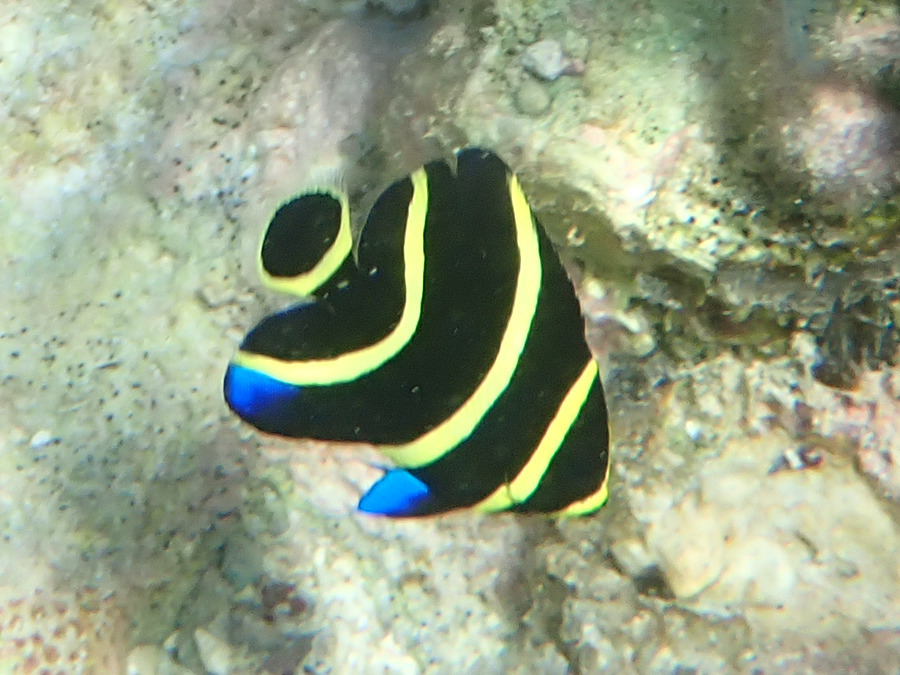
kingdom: Animalia
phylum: Chordata
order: Perciformes
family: Pomacanthidae
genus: Pomacanthus
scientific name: Pomacanthus paru
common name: French angelfish
